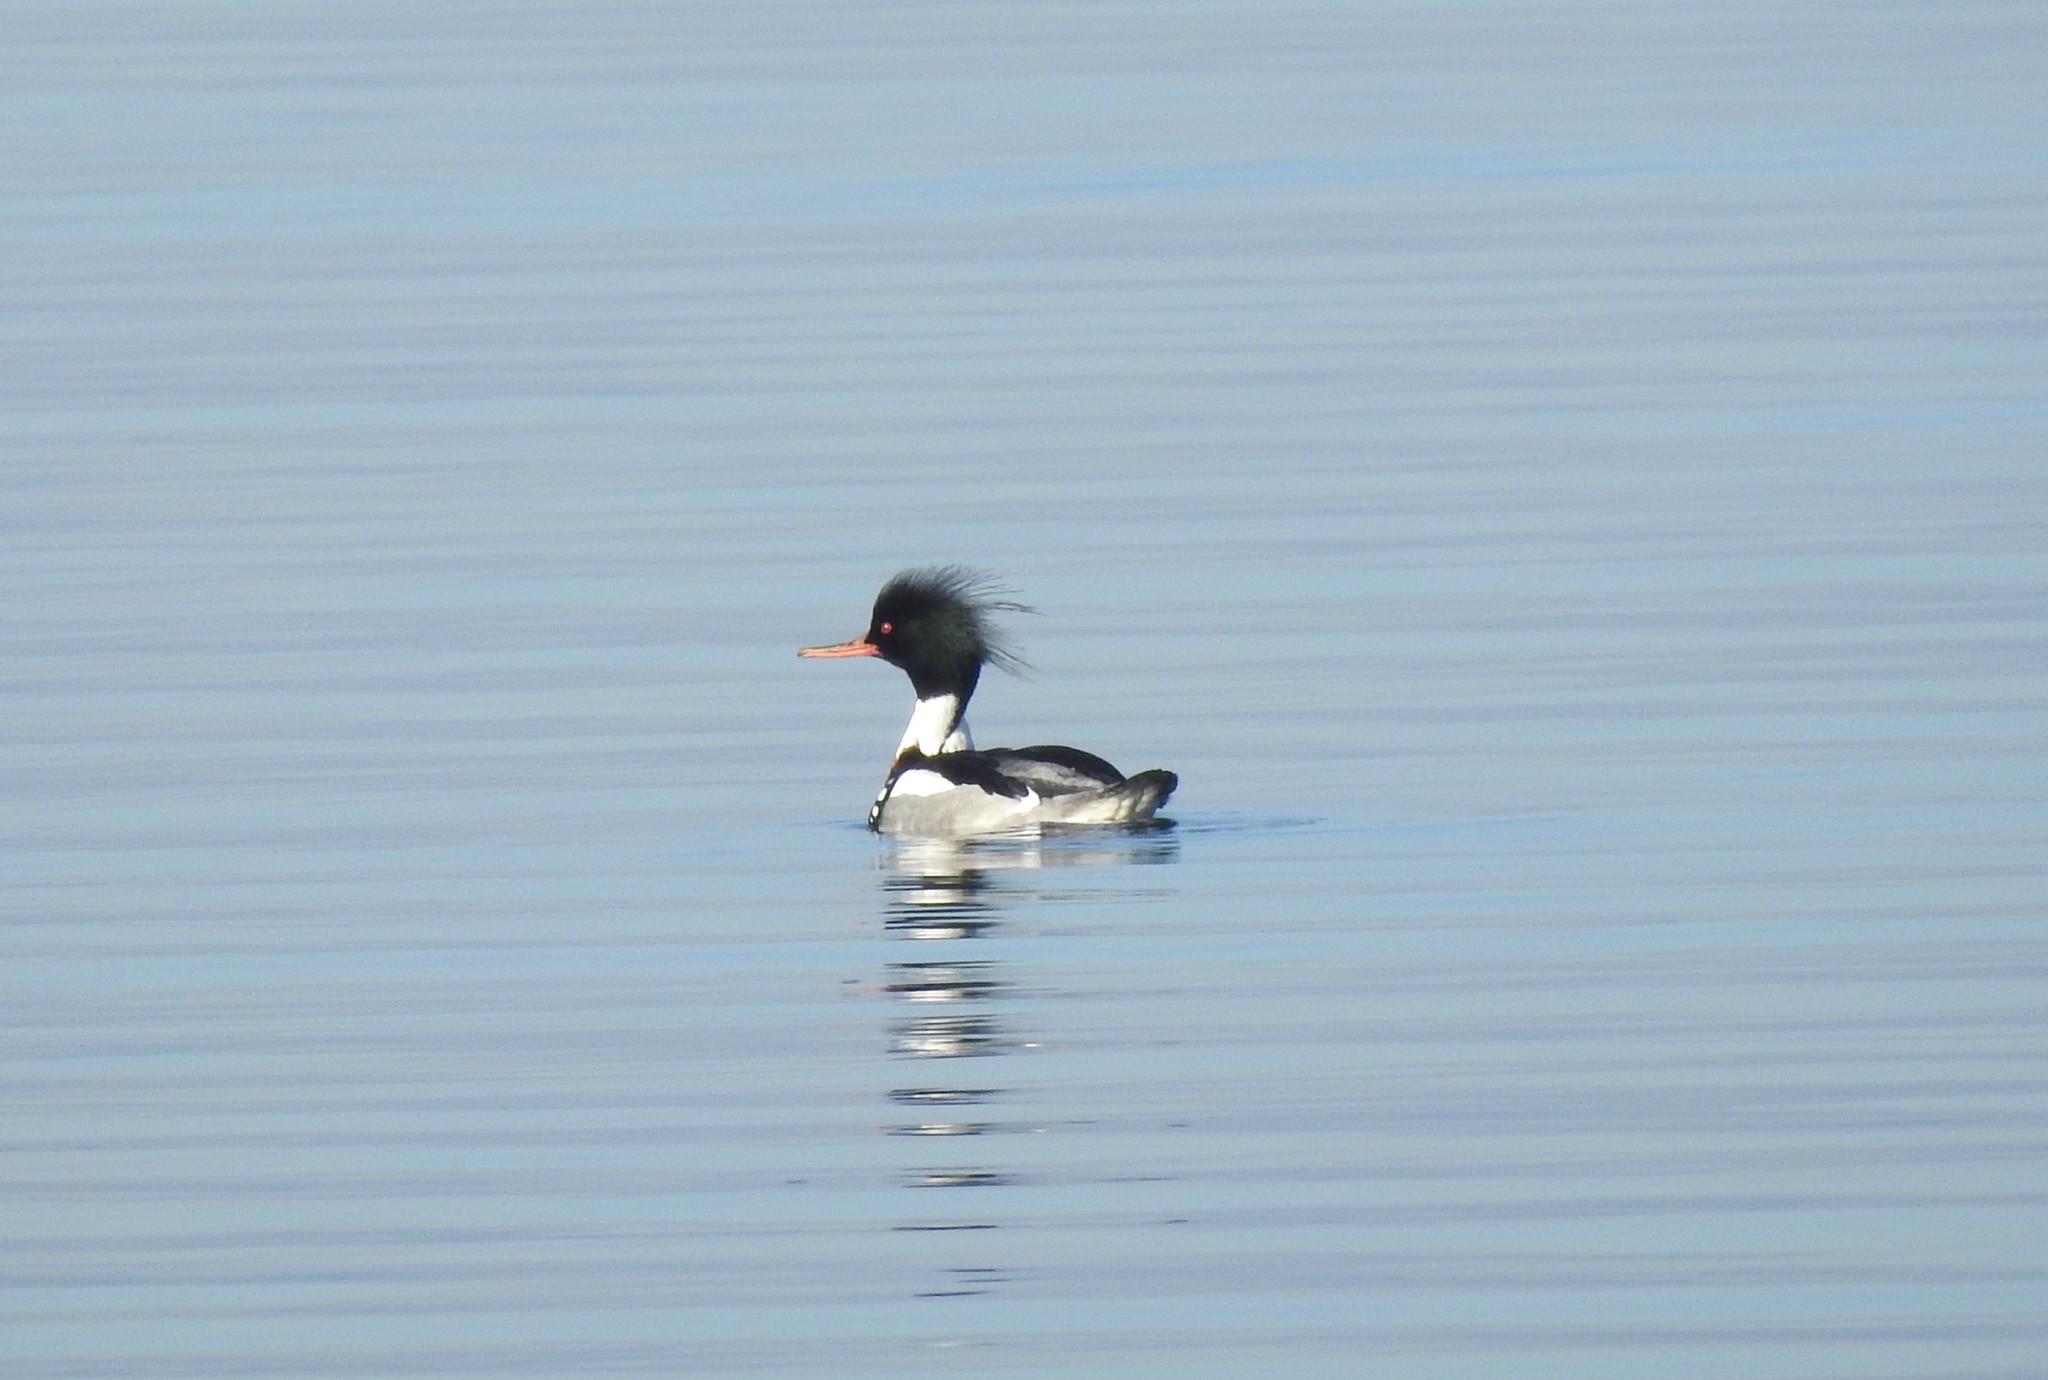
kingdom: Animalia
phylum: Chordata
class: Aves
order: Anseriformes
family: Anatidae
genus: Mergus
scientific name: Mergus serrator
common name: Red-breasted merganser
